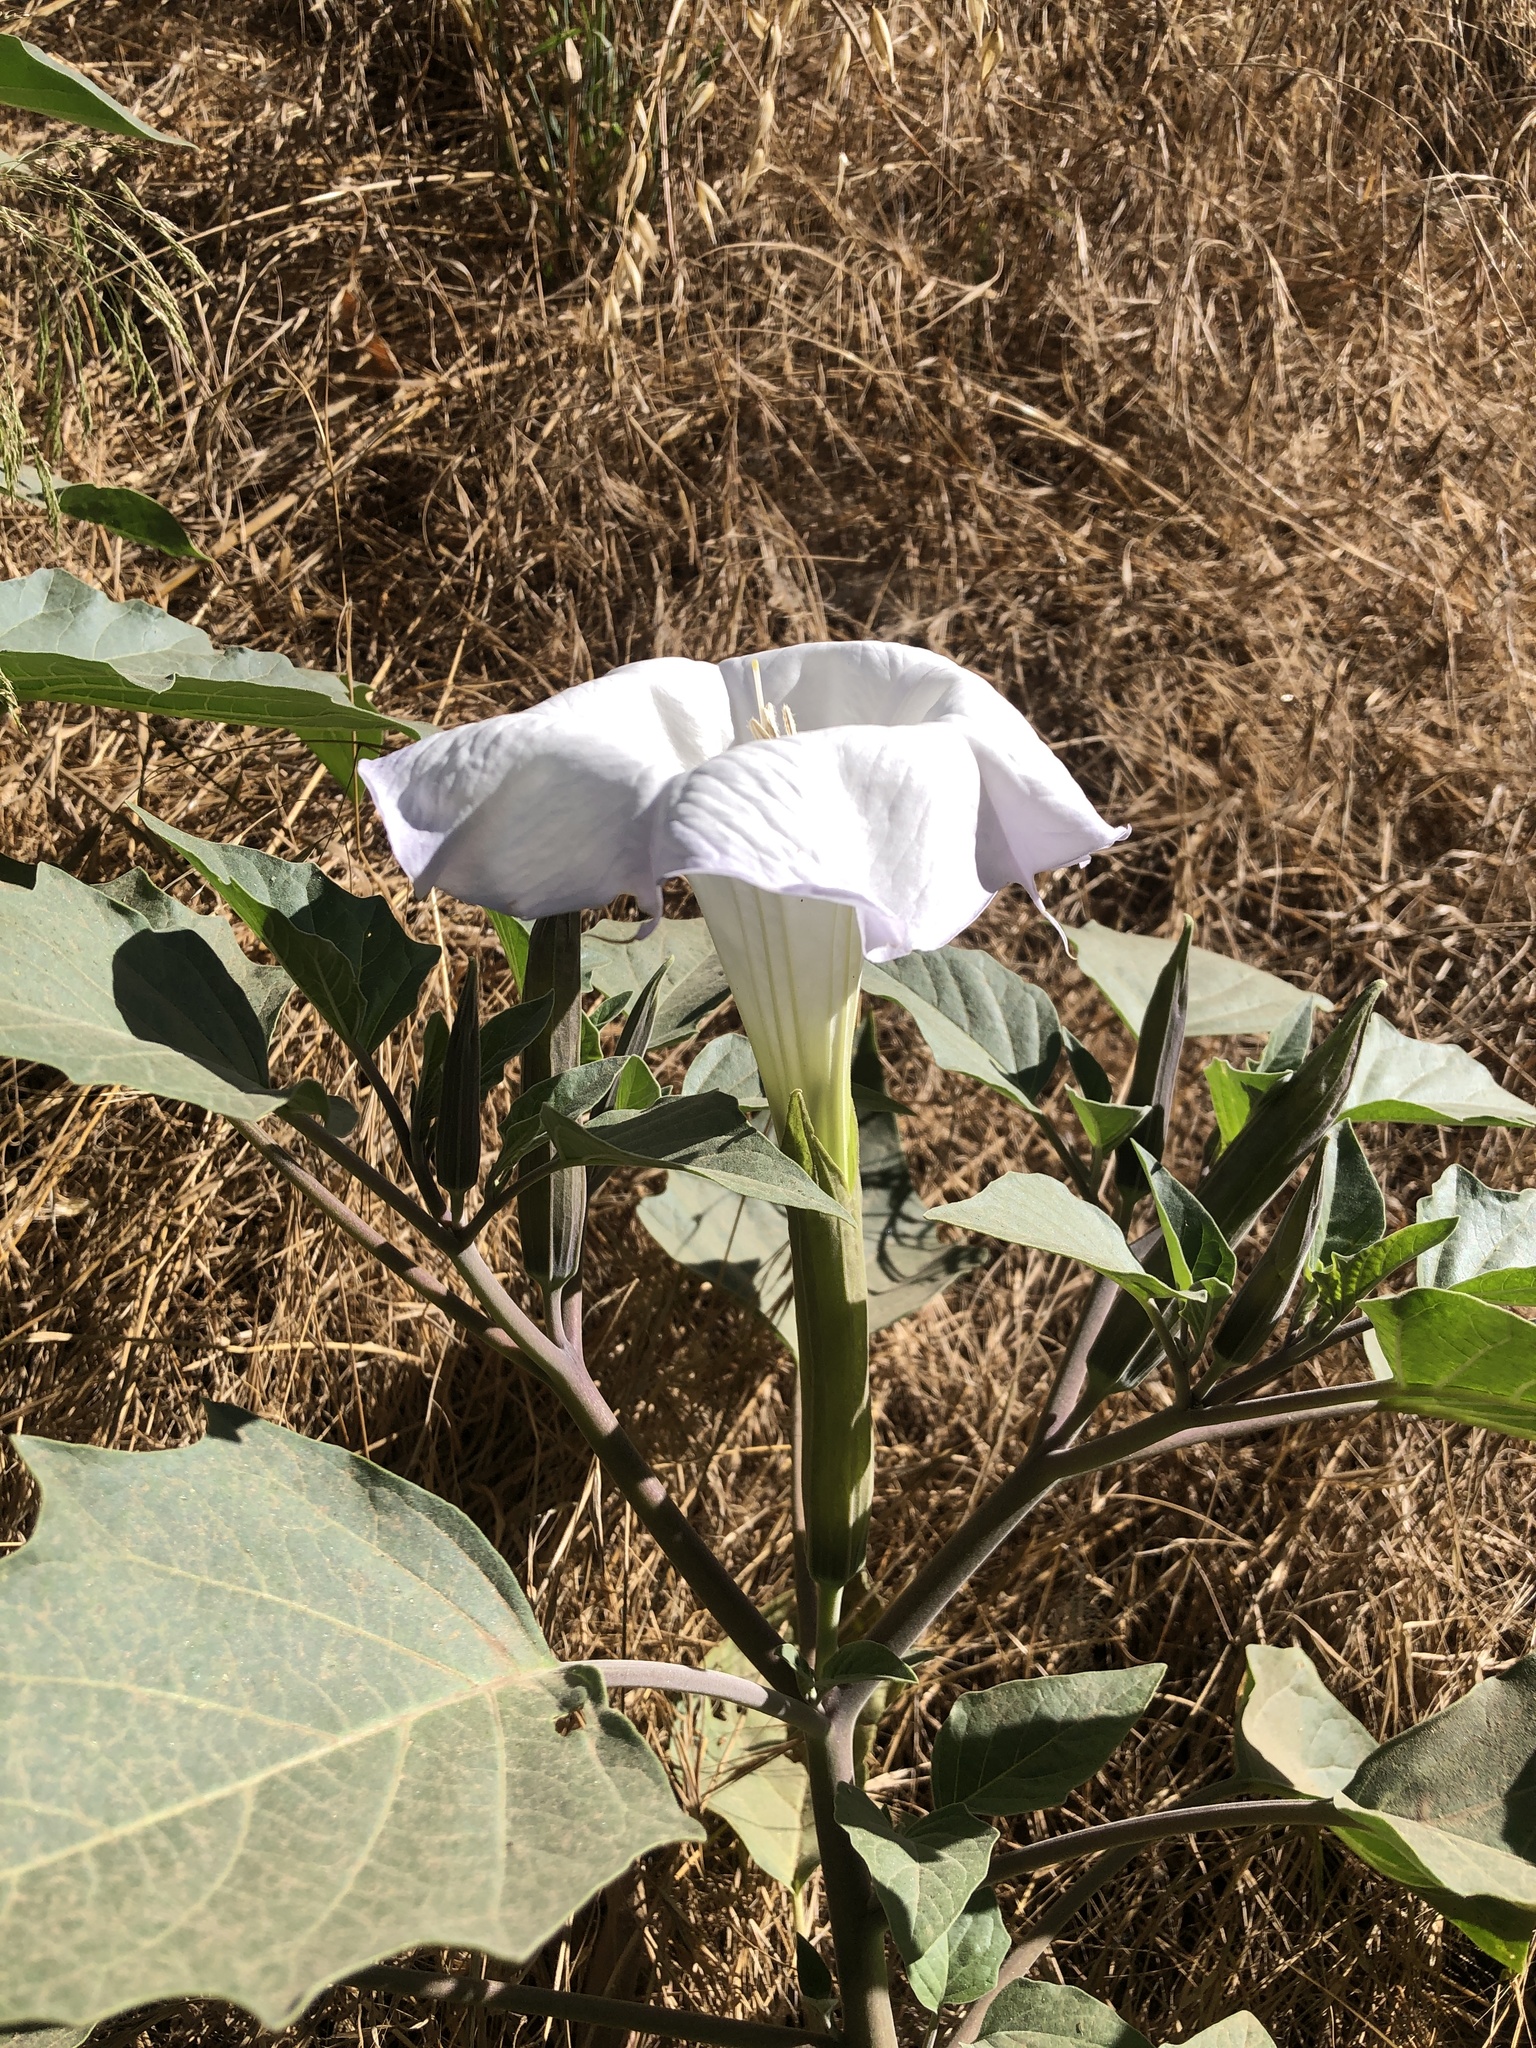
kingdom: Plantae
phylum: Tracheophyta
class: Magnoliopsida
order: Solanales
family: Solanaceae
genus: Datura
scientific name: Datura wrightii
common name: Sacred thorn-apple
